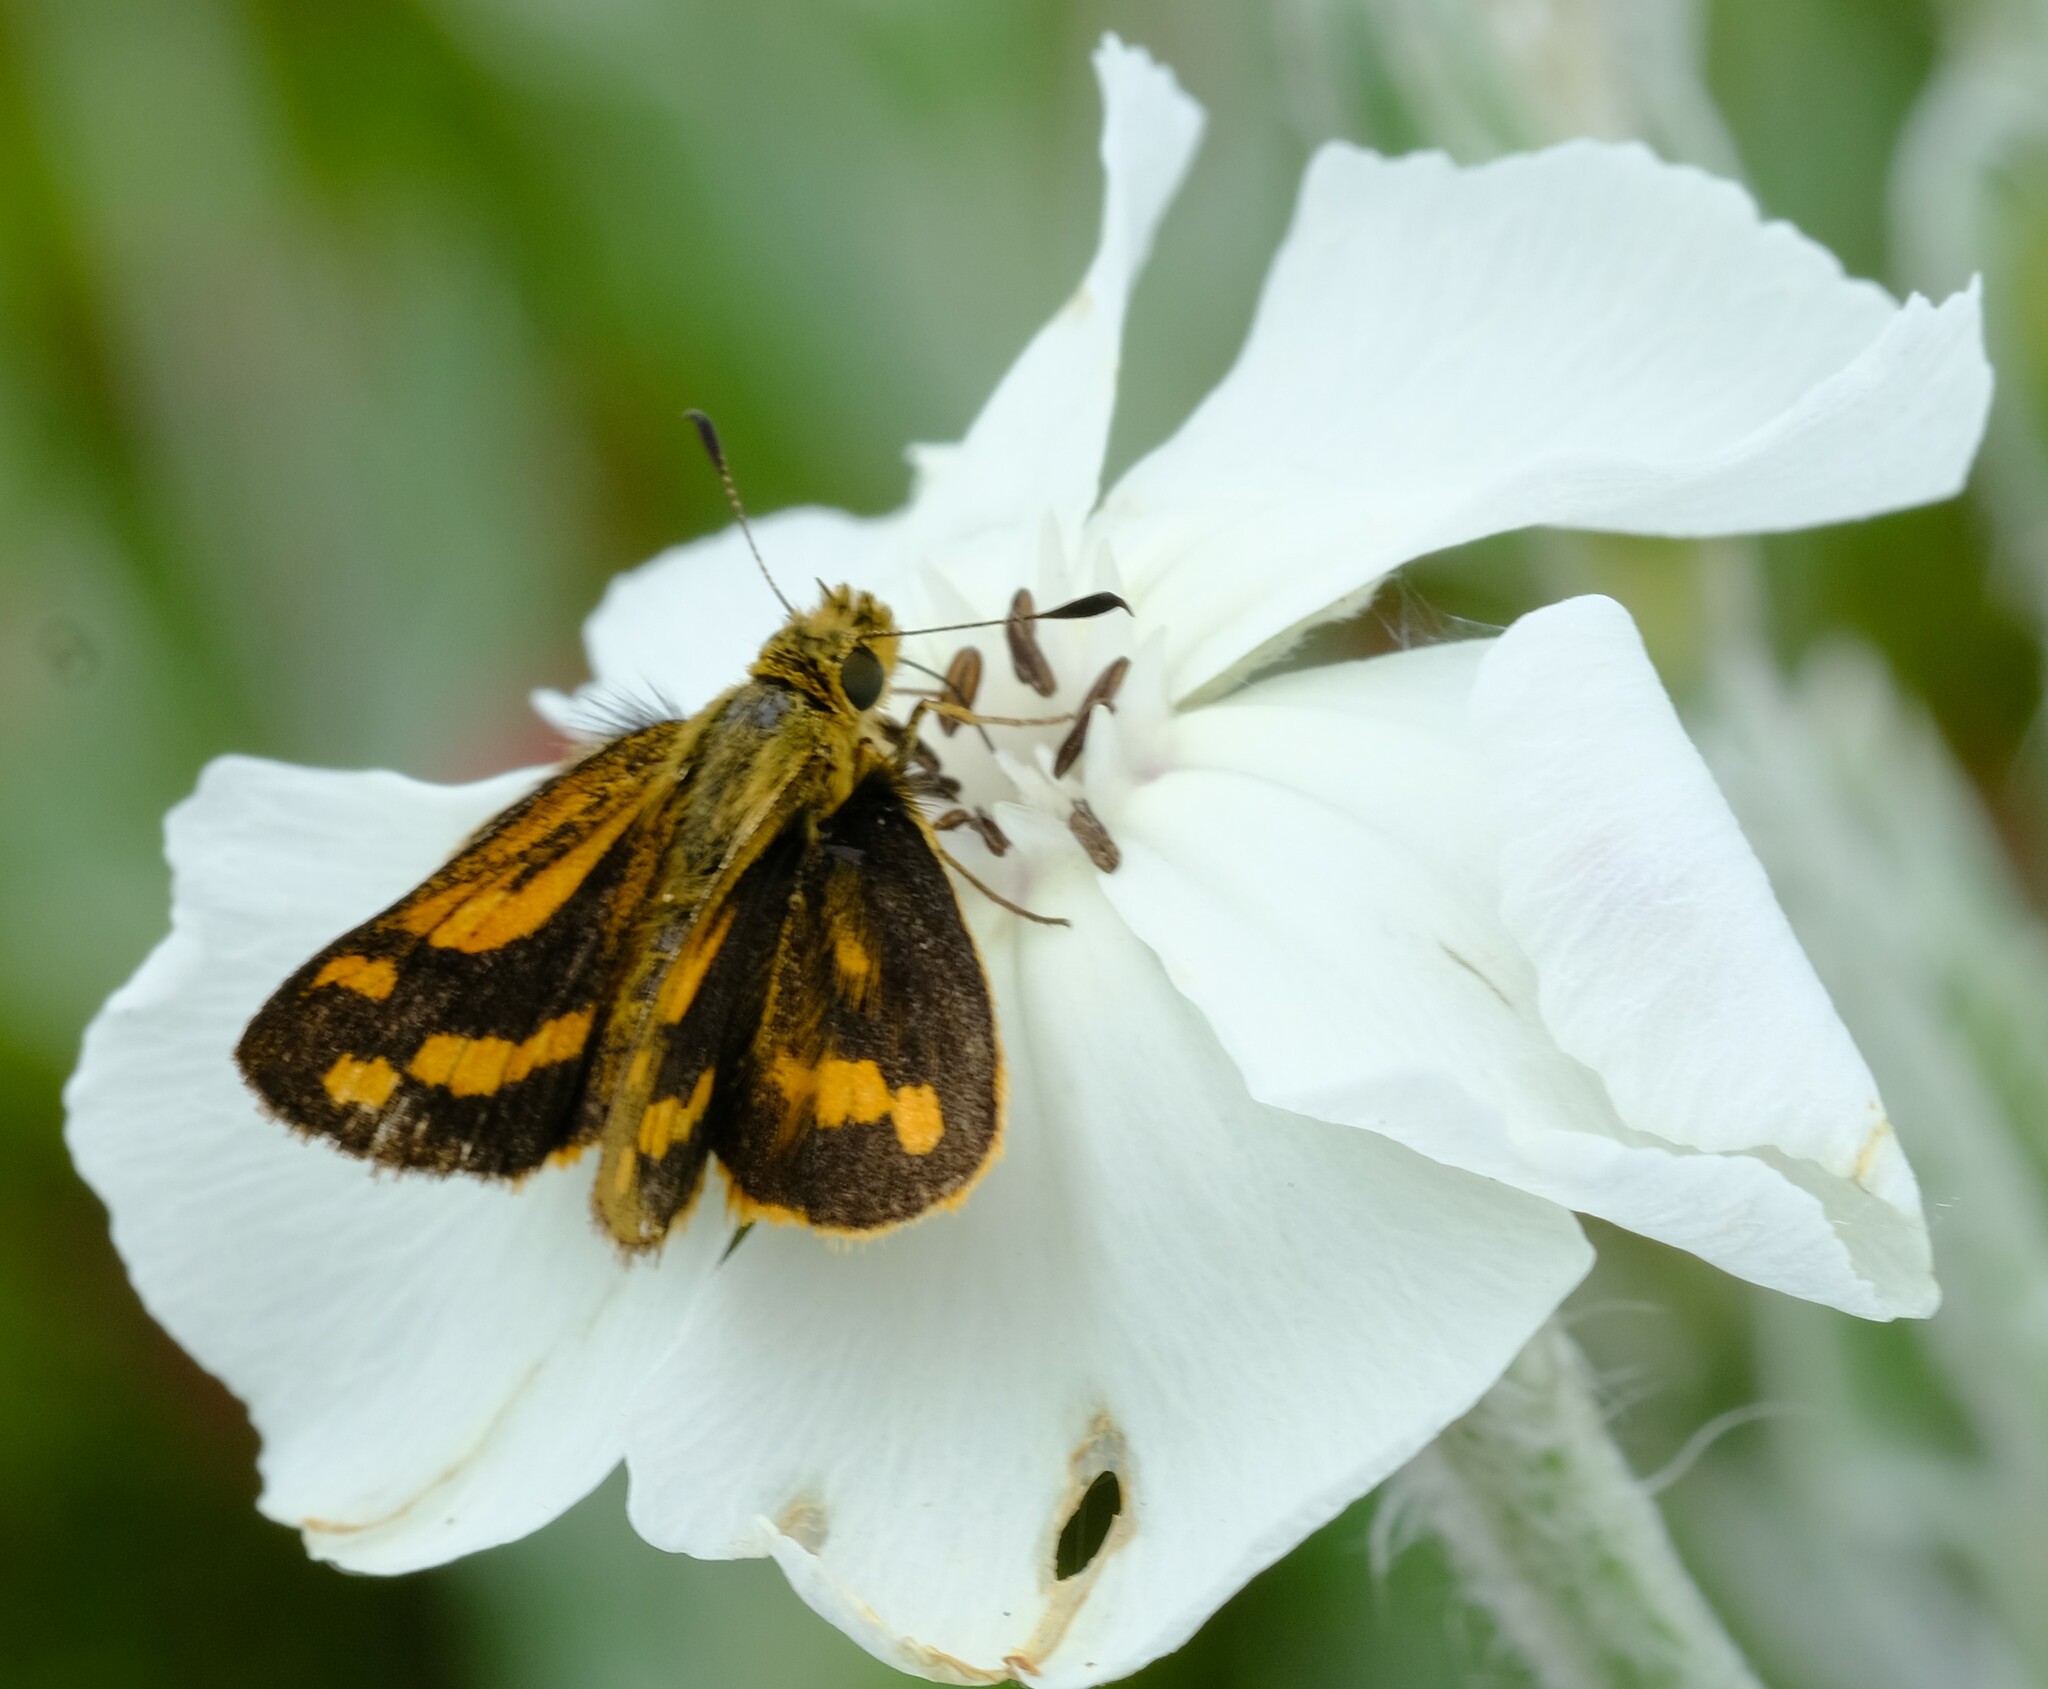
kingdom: Animalia
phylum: Arthropoda
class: Insecta
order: Lepidoptera
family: Hesperiidae
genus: Ocybadistes
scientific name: Ocybadistes walkeri
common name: Yellow-banded dart
